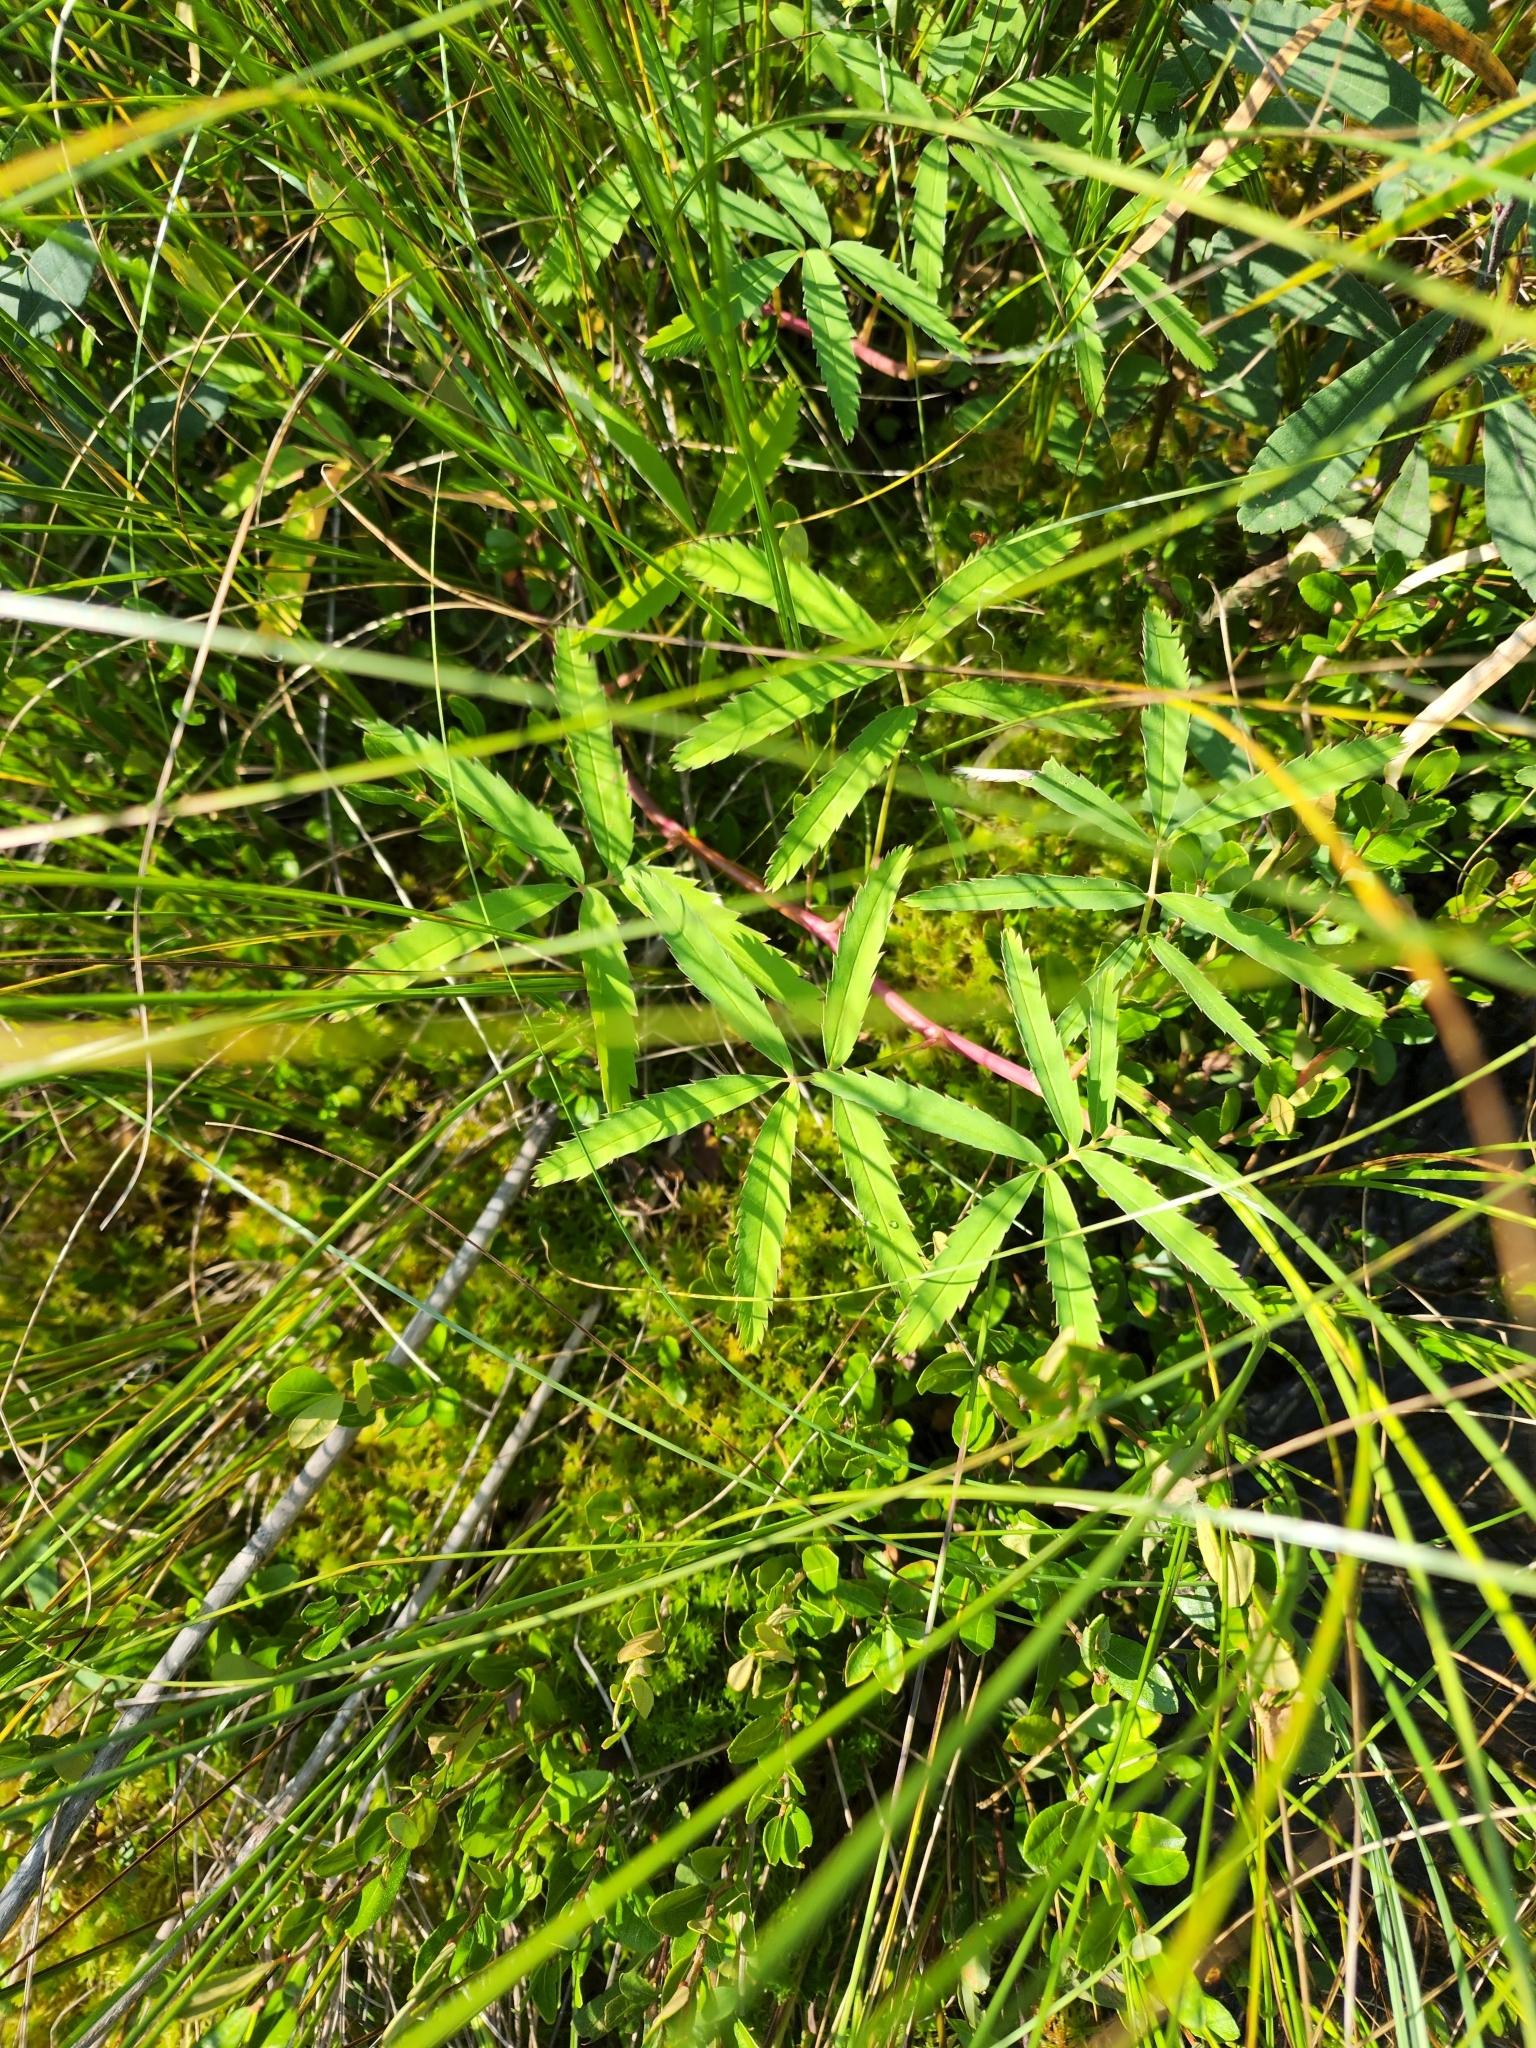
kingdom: Plantae
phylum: Tracheophyta
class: Magnoliopsida
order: Rosales
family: Rosaceae
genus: Comarum
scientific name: Comarum palustre
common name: Marsh cinquefoil
